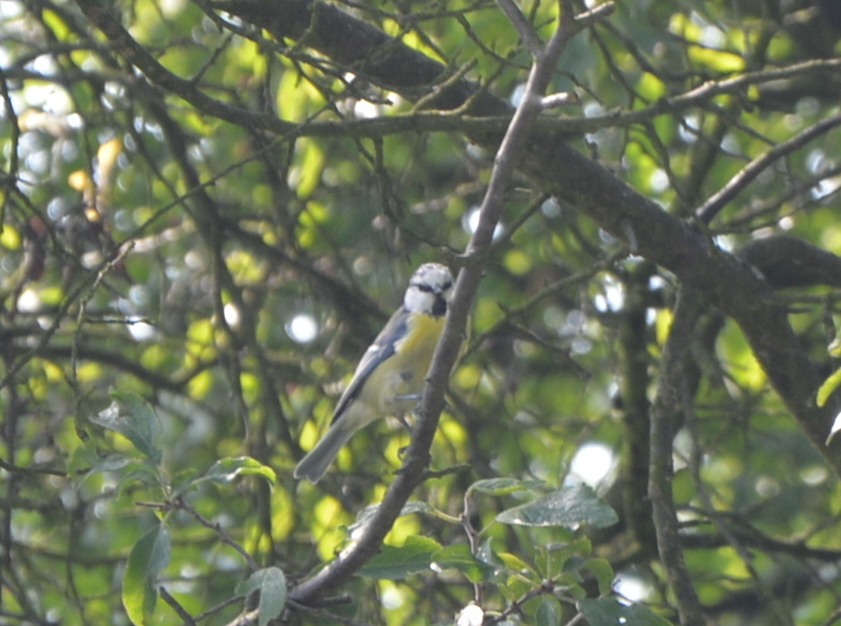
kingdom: Animalia
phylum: Chordata
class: Aves
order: Passeriformes
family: Paridae
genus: Cyanistes
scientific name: Cyanistes caeruleus
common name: Eurasian blue tit
